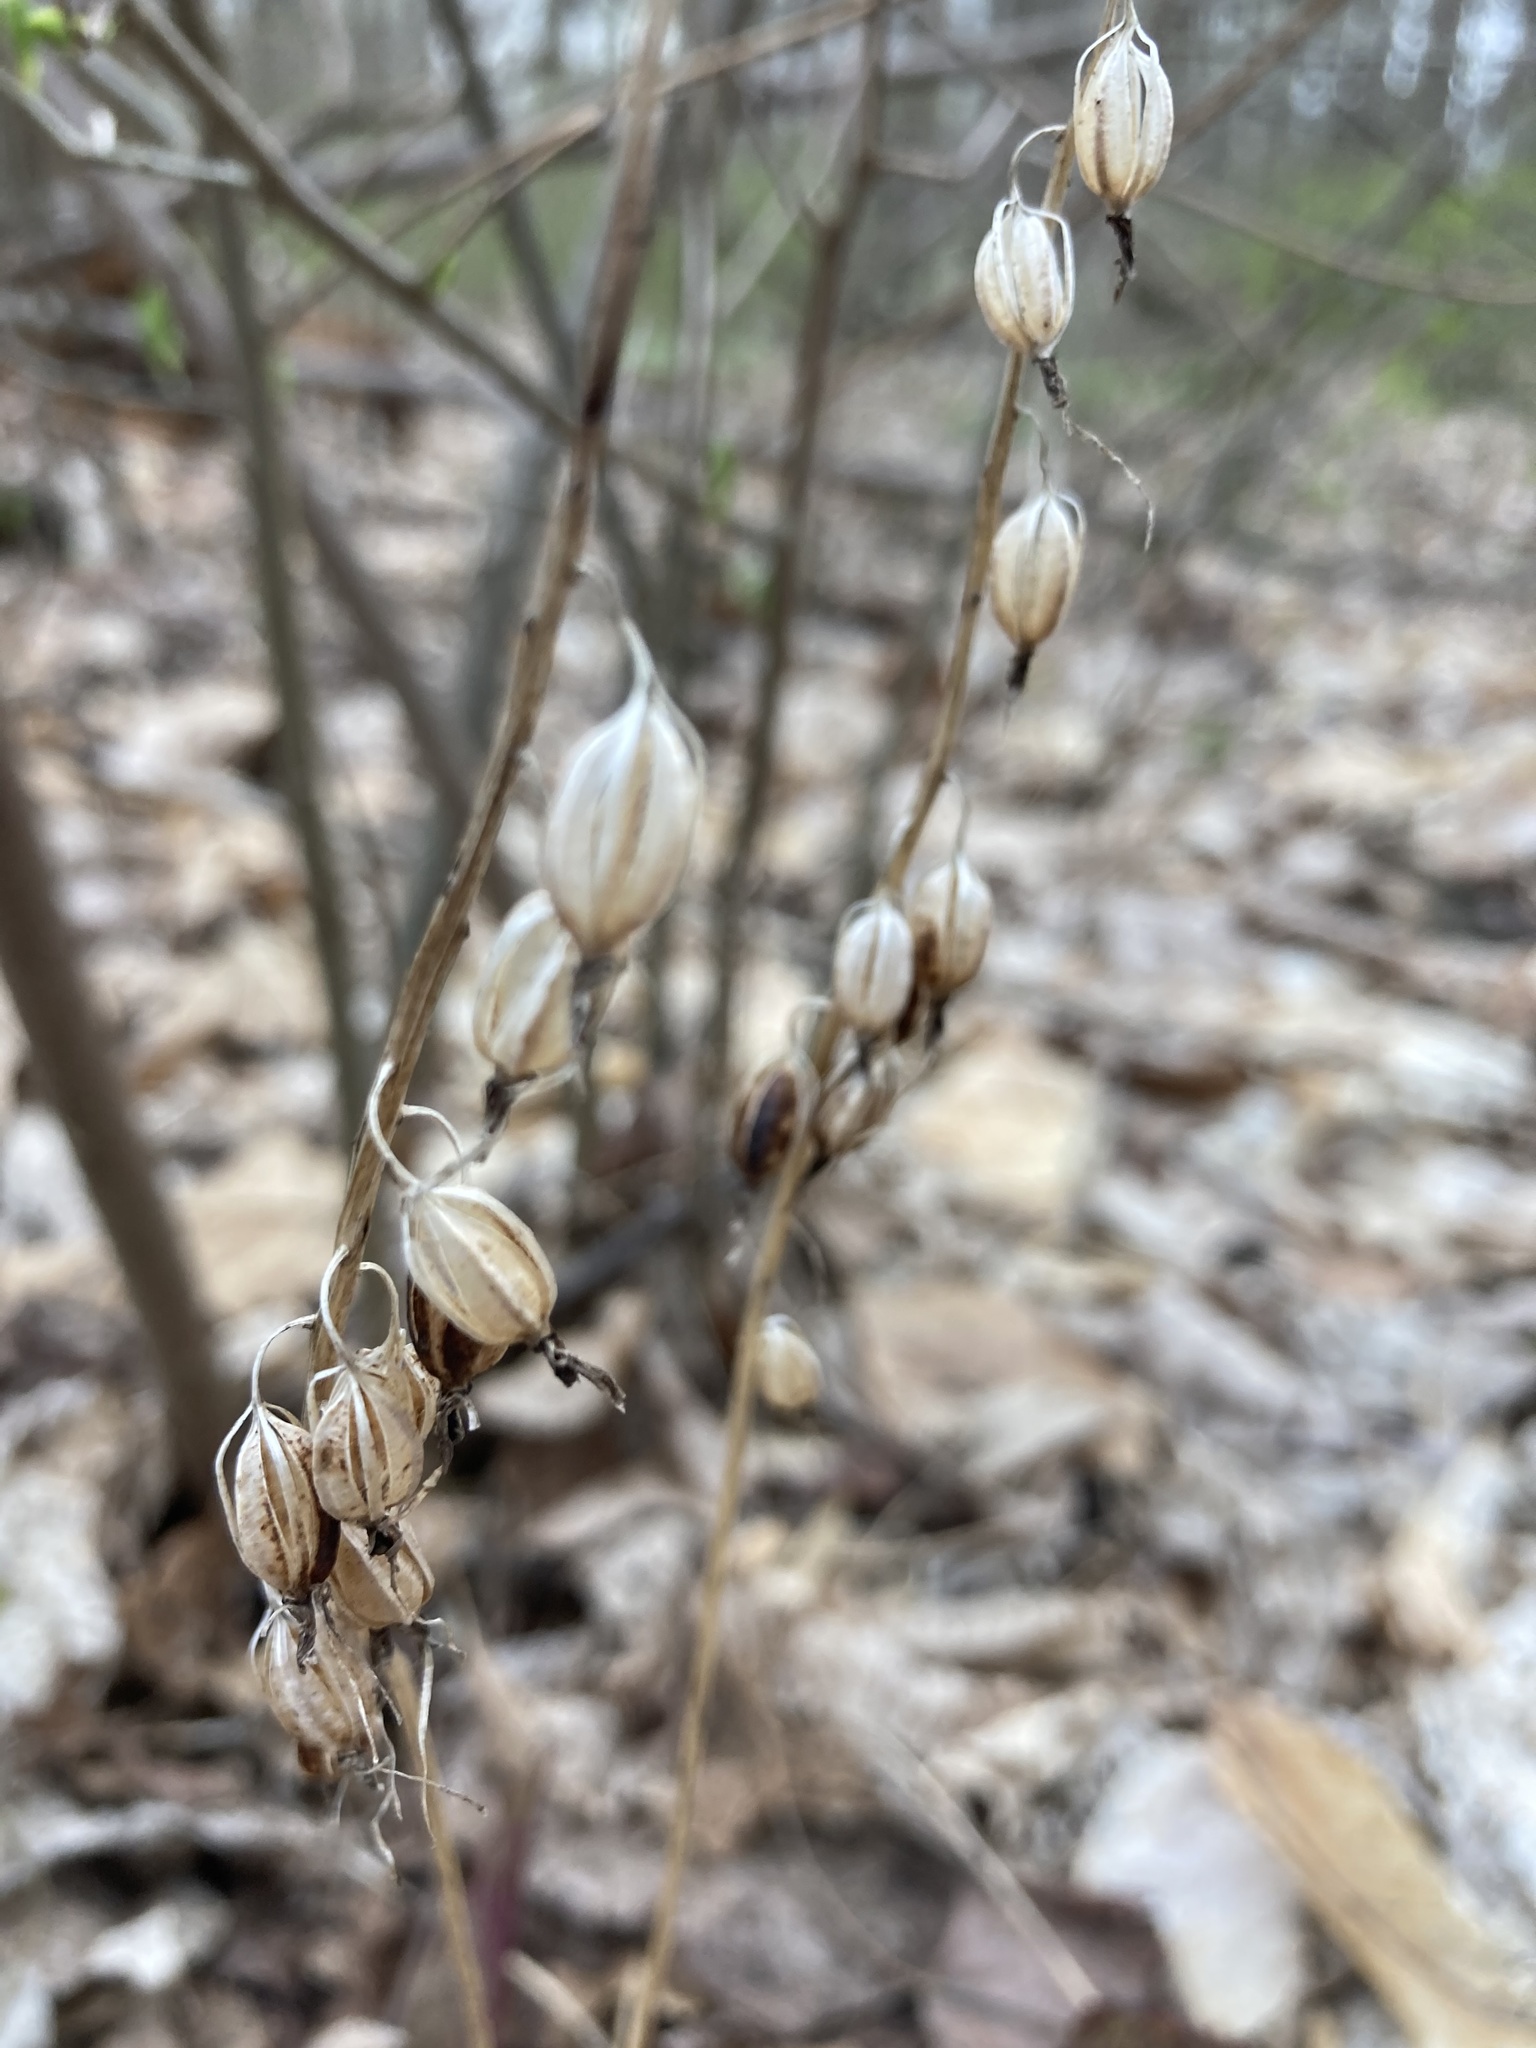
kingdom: Plantae
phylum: Tracheophyta
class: Liliopsida
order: Asparagales
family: Orchidaceae
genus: Tipularia
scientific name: Tipularia discolor
